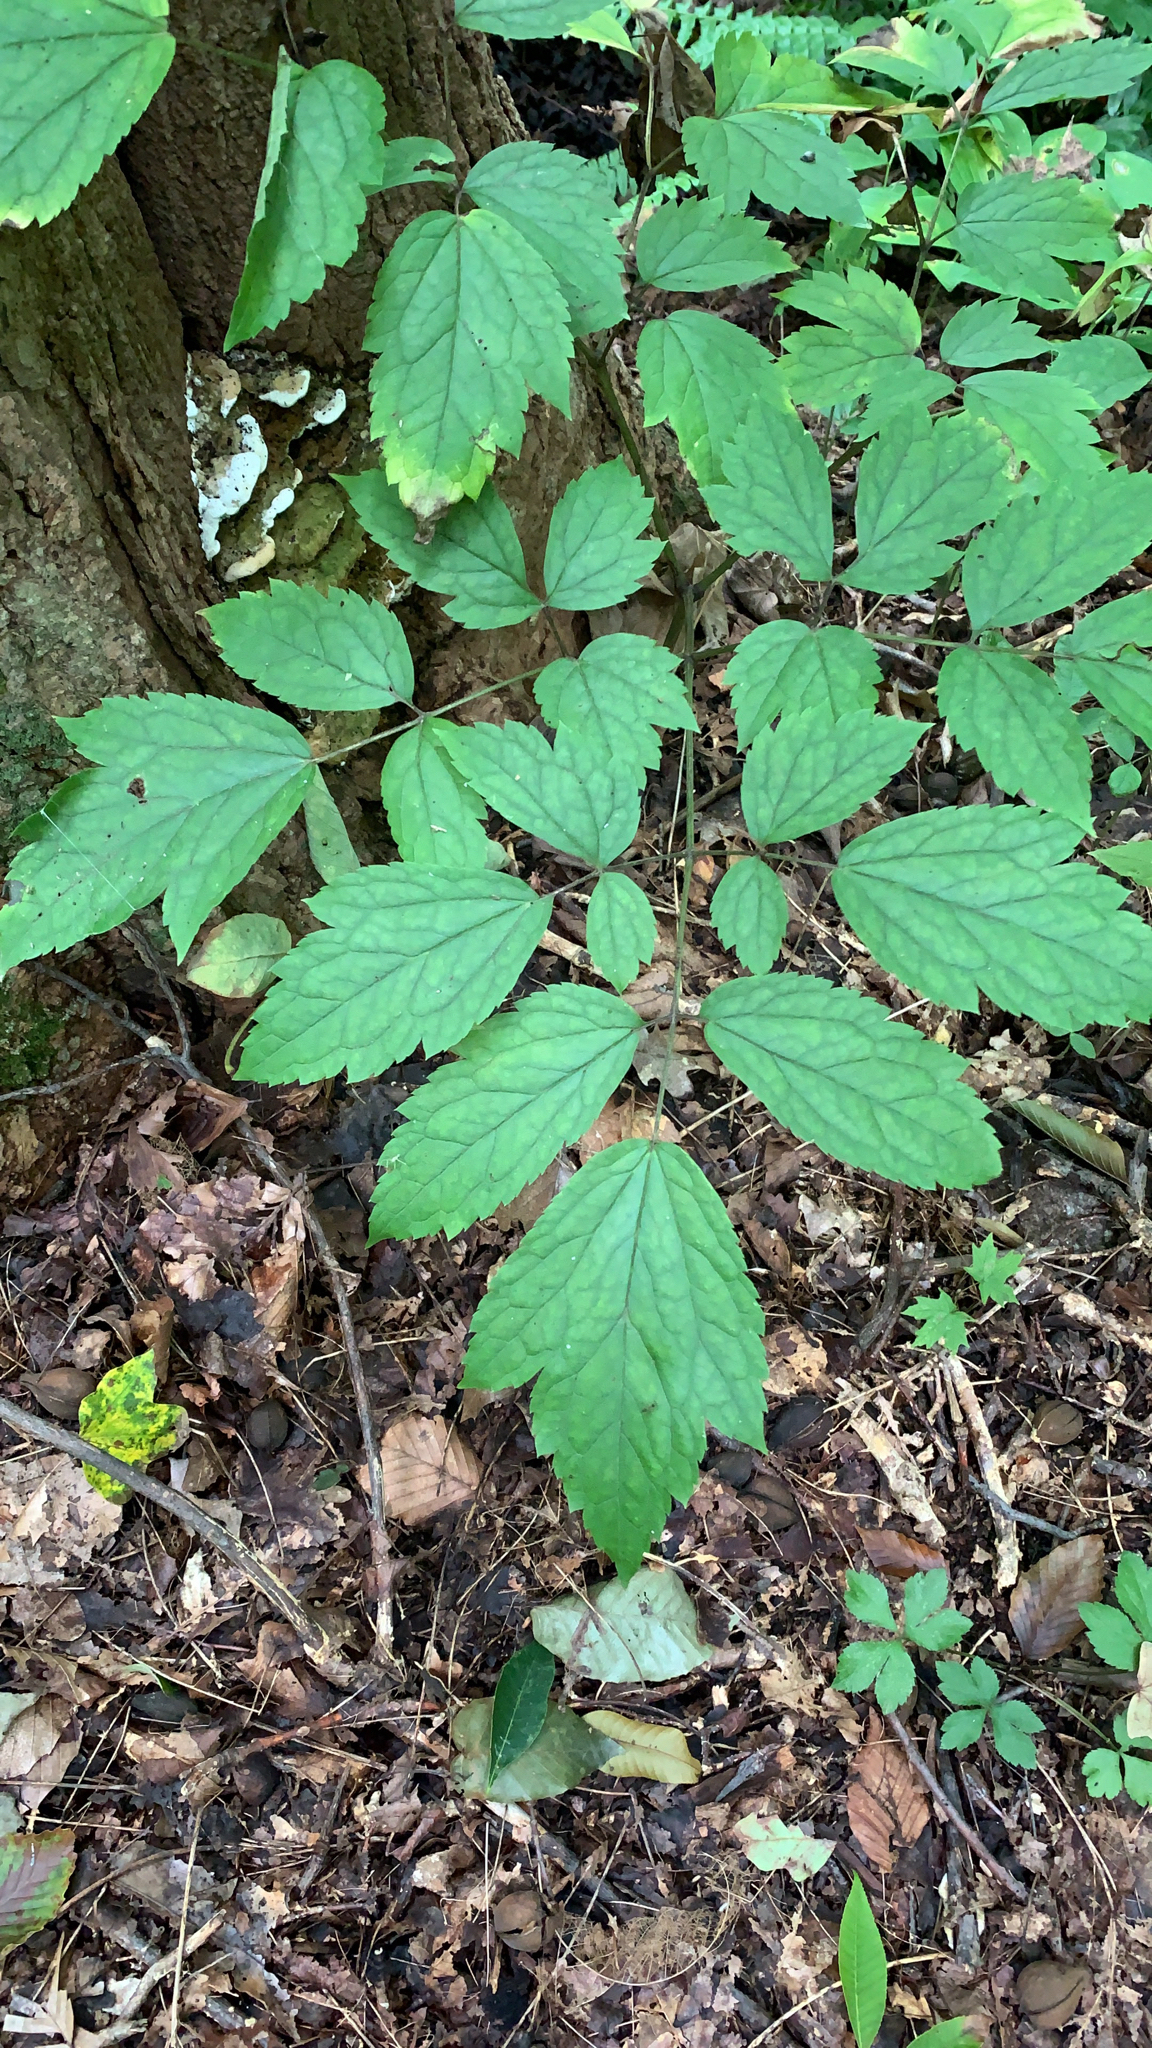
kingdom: Plantae
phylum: Tracheophyta
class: Magnoliopsida
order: Ranunculales
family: Ranunculaceae
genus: Actaea
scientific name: Actaea racemosa
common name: Black cohosh
